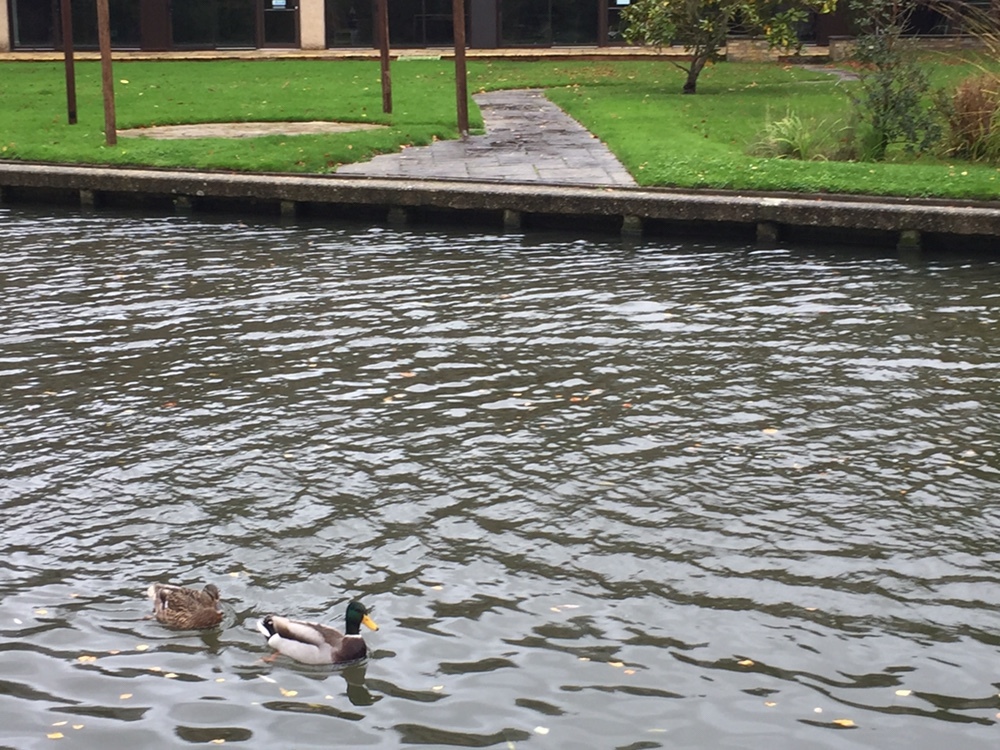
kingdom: Animalia
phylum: Chordata
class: Aves
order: Anseriformes
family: Anatidae
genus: Anas
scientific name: Anas platyrhynchos
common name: Mallard
